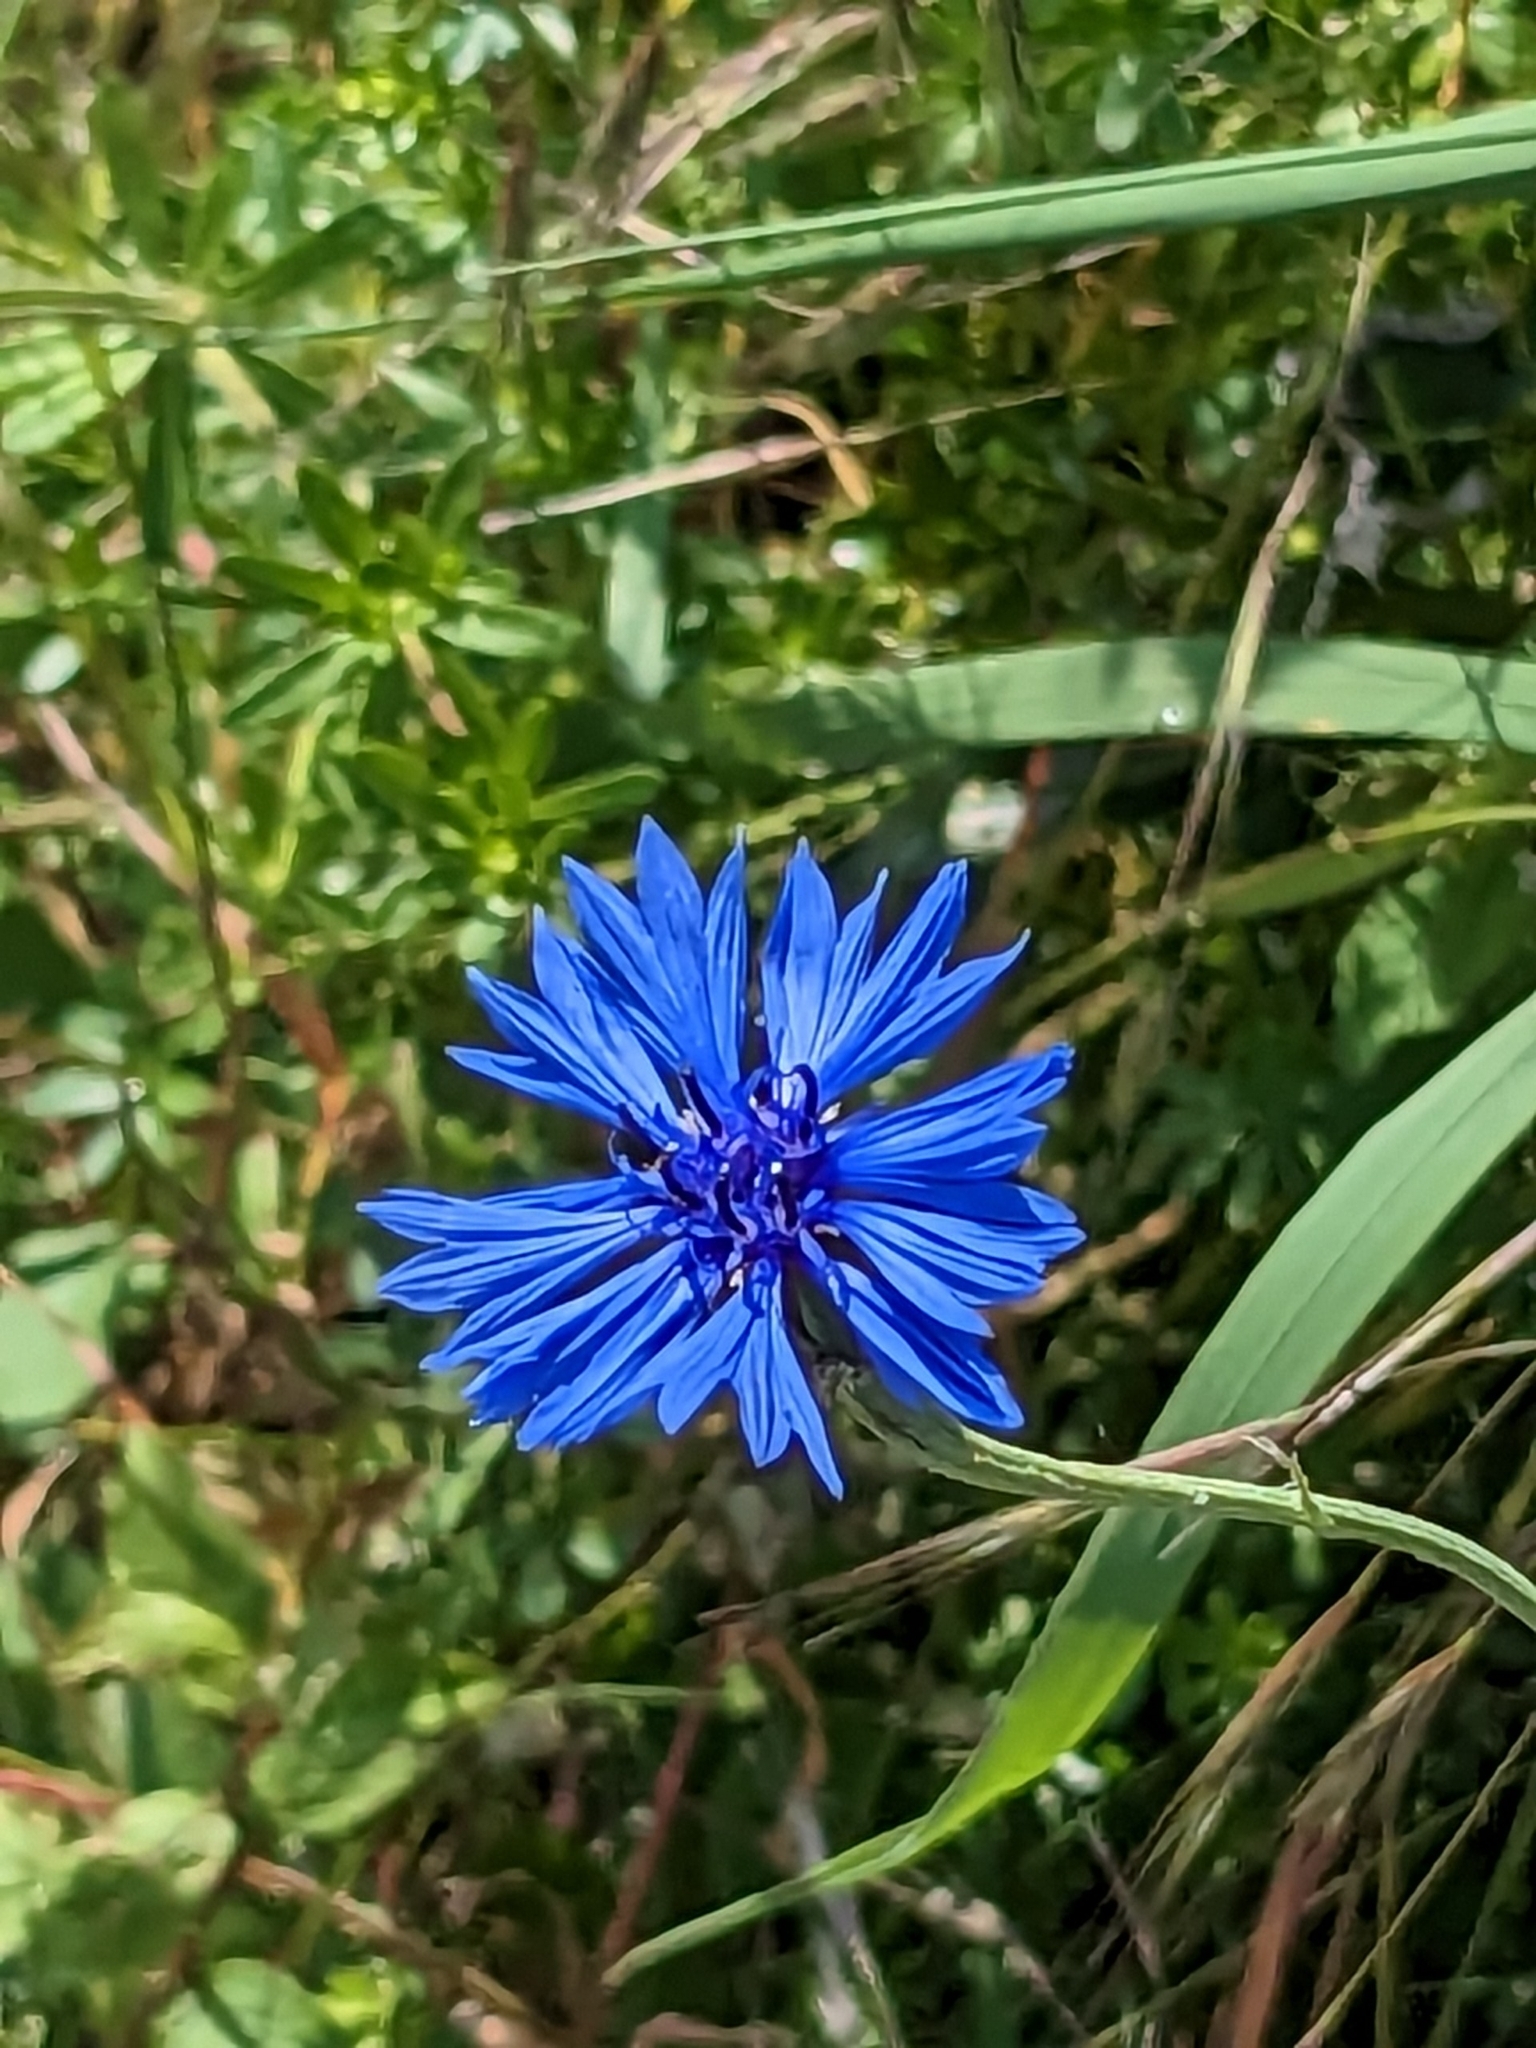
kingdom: Plantae
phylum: Tracheophyta
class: Magnoliopsida
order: Asterales
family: Asteraceae
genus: Centaurea
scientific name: Centaurea cyanus
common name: Cornflower
